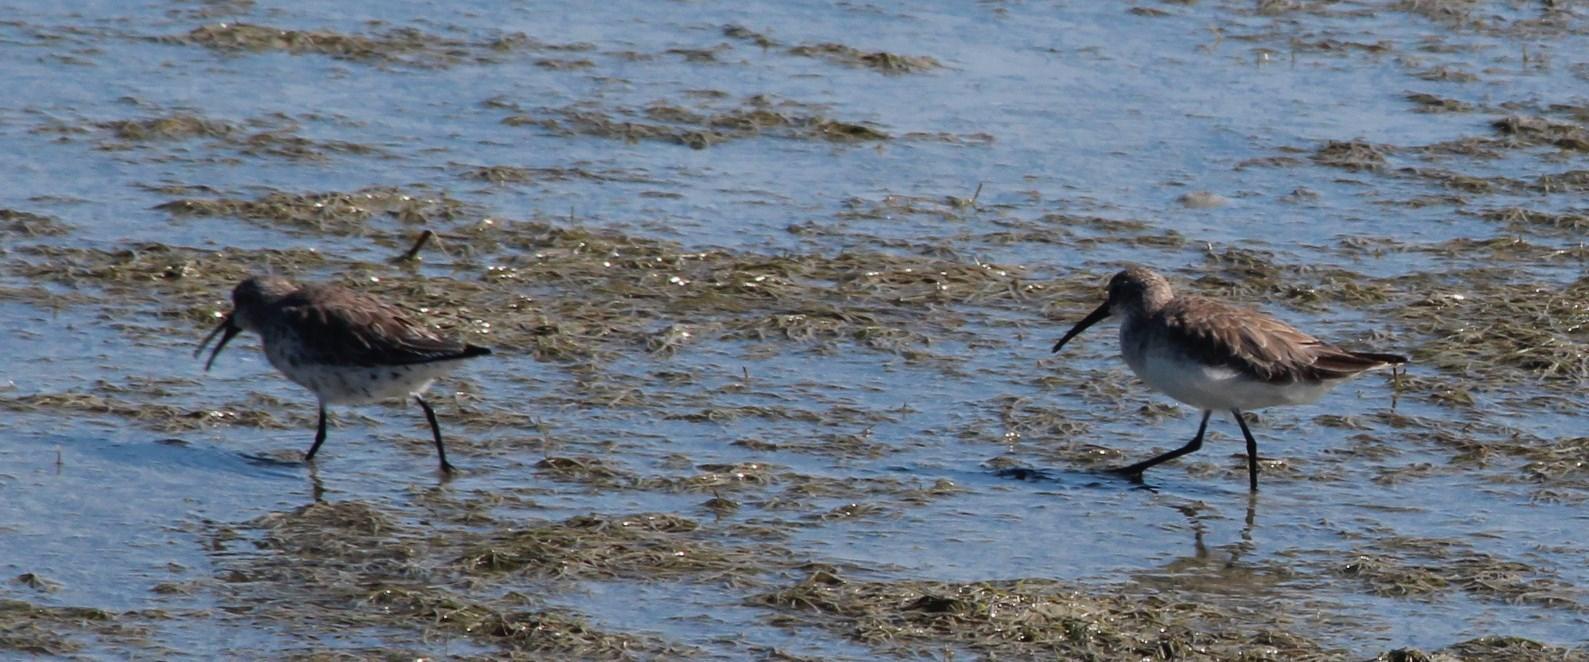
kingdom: Animalia
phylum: Chordata
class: Aves
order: Charadriiformes
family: Scolopacidae
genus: Calidris
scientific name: Calidris ferruginea
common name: Curlew sandpiper
